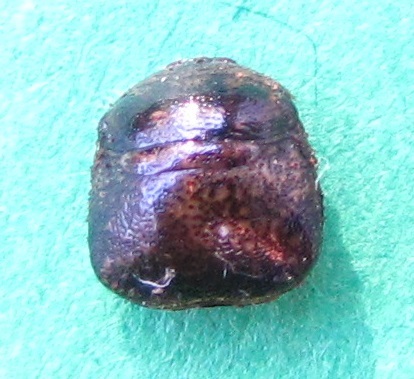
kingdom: Animalia
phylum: Arthropoda
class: Insecta
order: Hemiptera
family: Plataspidae
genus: Megacopta
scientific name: Megacopta cribraria
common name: Bean plataspid
